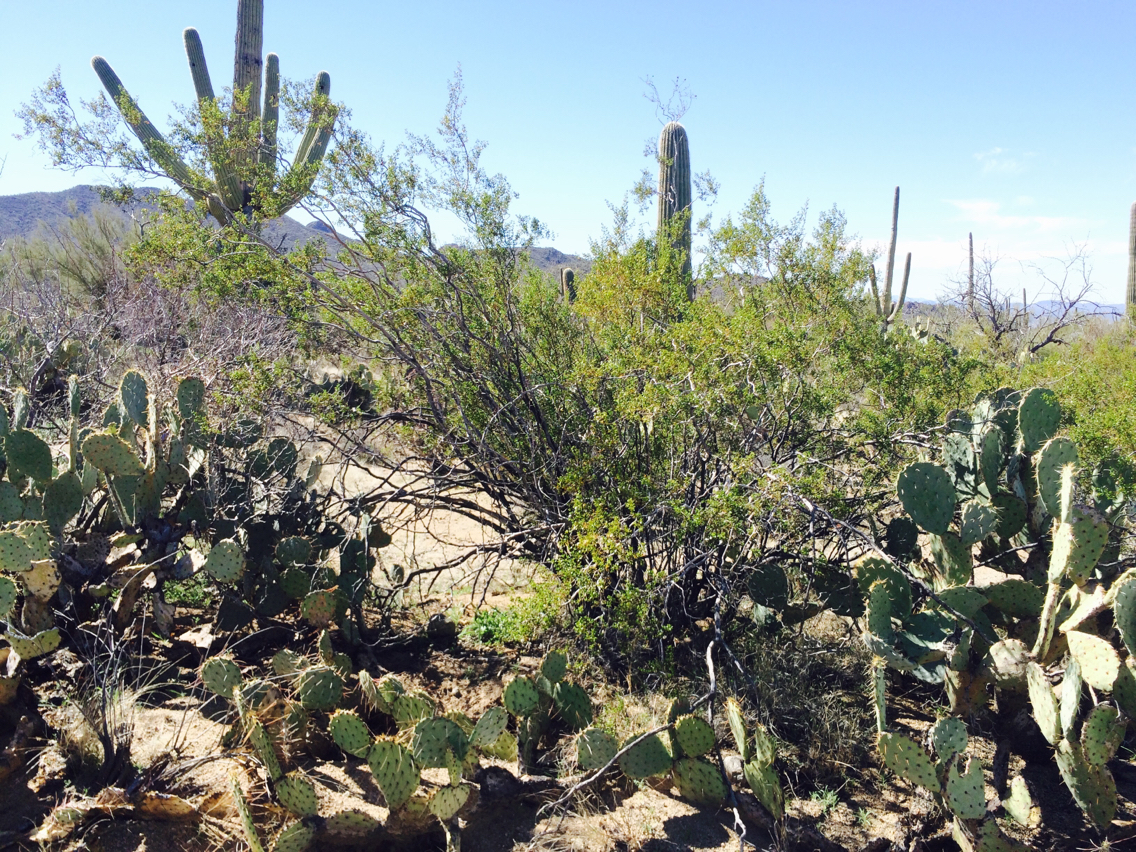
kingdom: Plantae
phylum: Tracheophyta
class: Magnoliopsida
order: Zygophyllales
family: Zygophyllaceae
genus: Larrea
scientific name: Larrea tridentata
